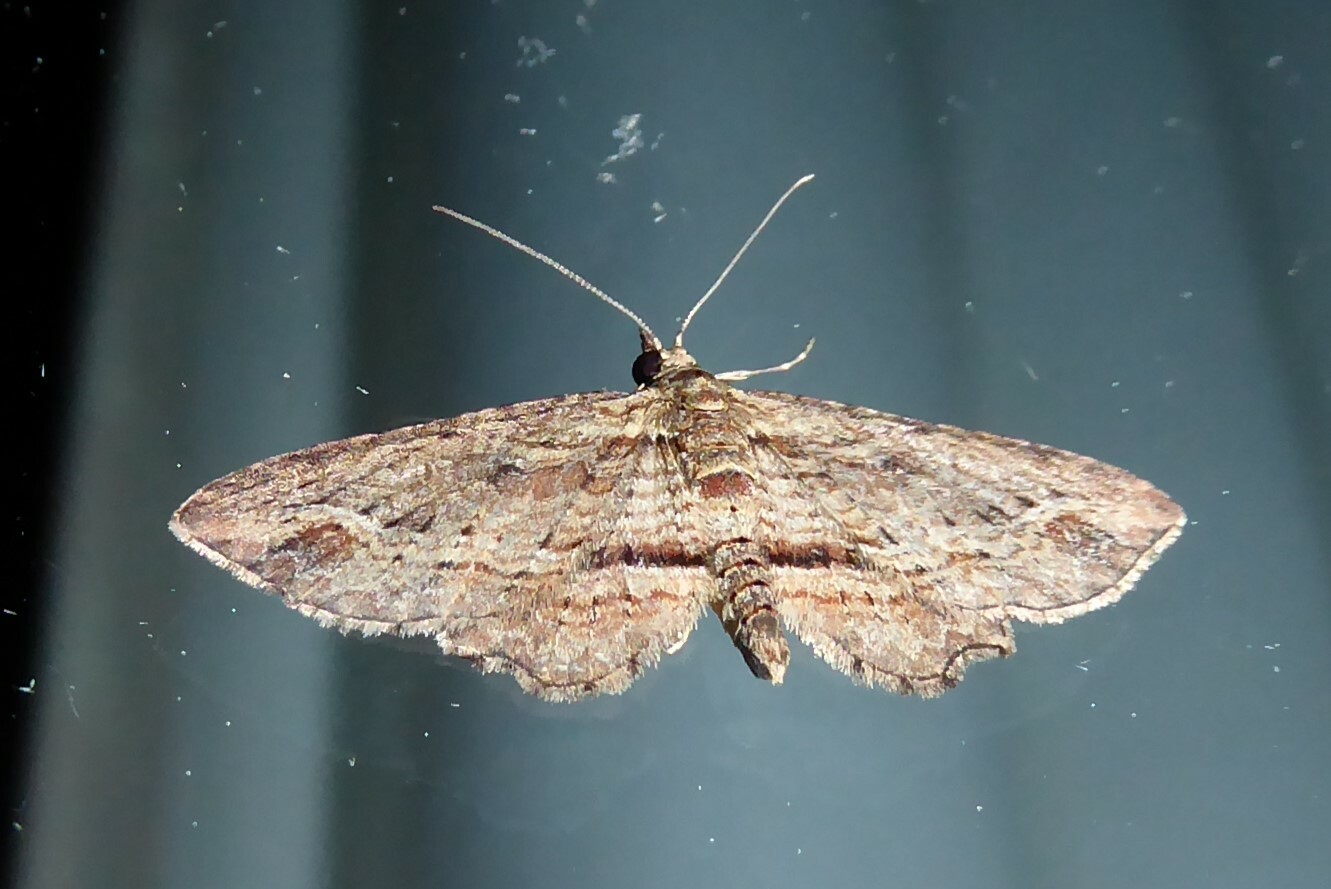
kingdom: Animalia
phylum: Arthropoda
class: Insecta
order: Lepidoptera
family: Geometridae
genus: Chloroclystis
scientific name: Chloroclystis filata
